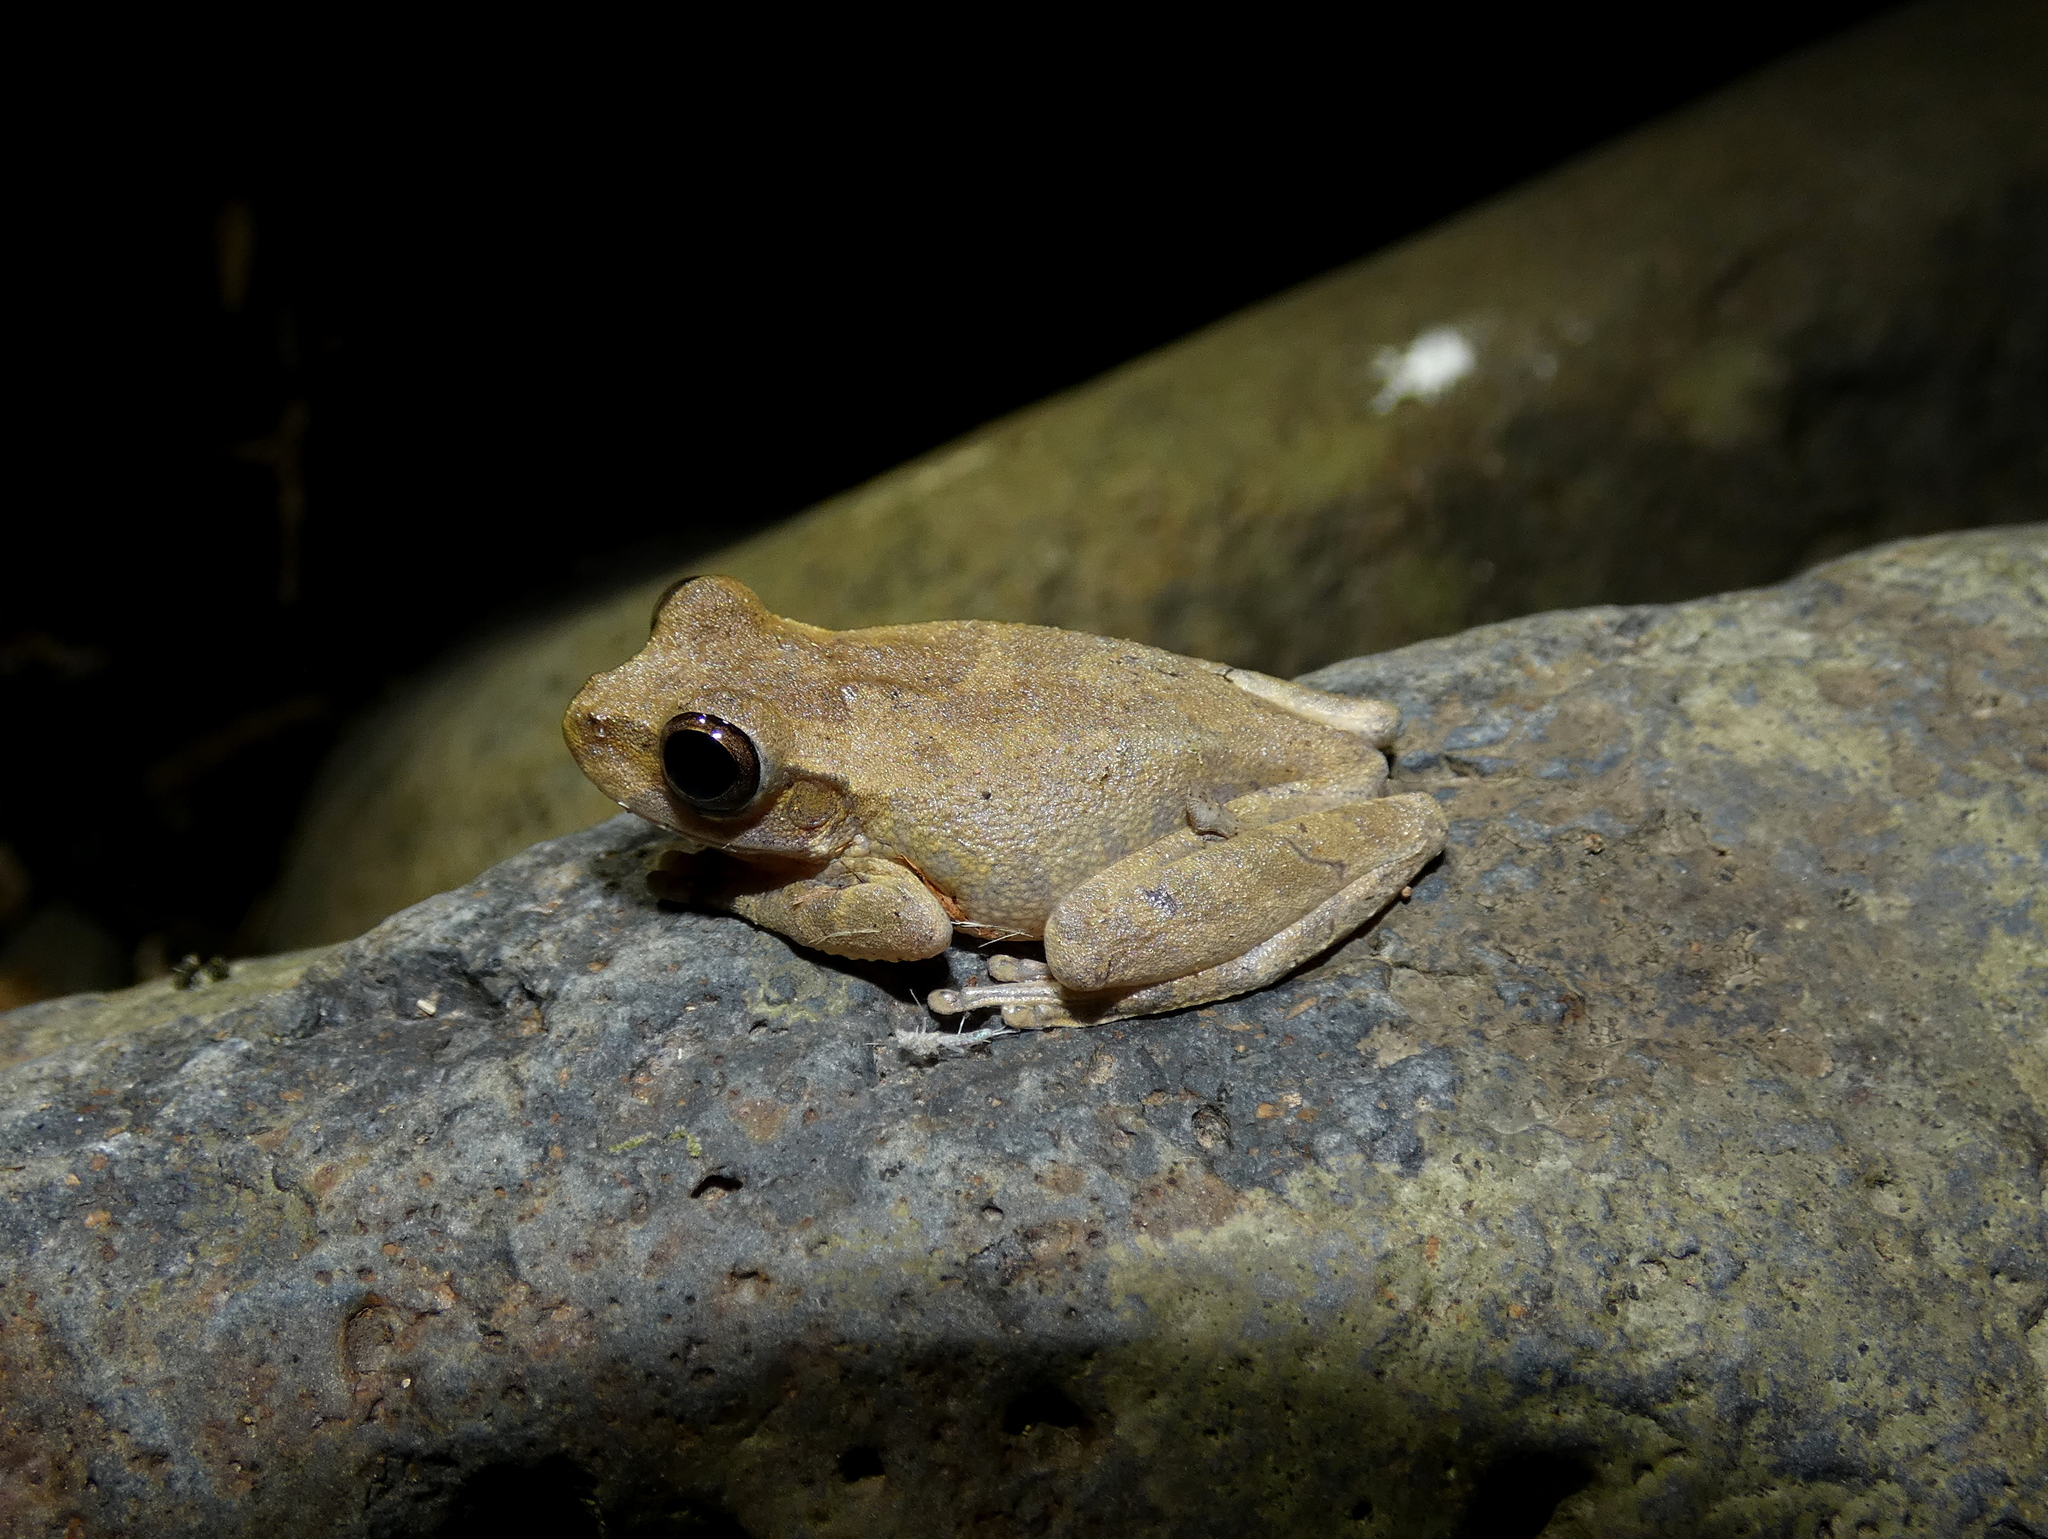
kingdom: Animalia
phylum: Chordata
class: Amphibia
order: Anura
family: Hylidae
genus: Smilisca
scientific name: Smilisca sila
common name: Panama cross-banded treefrog
